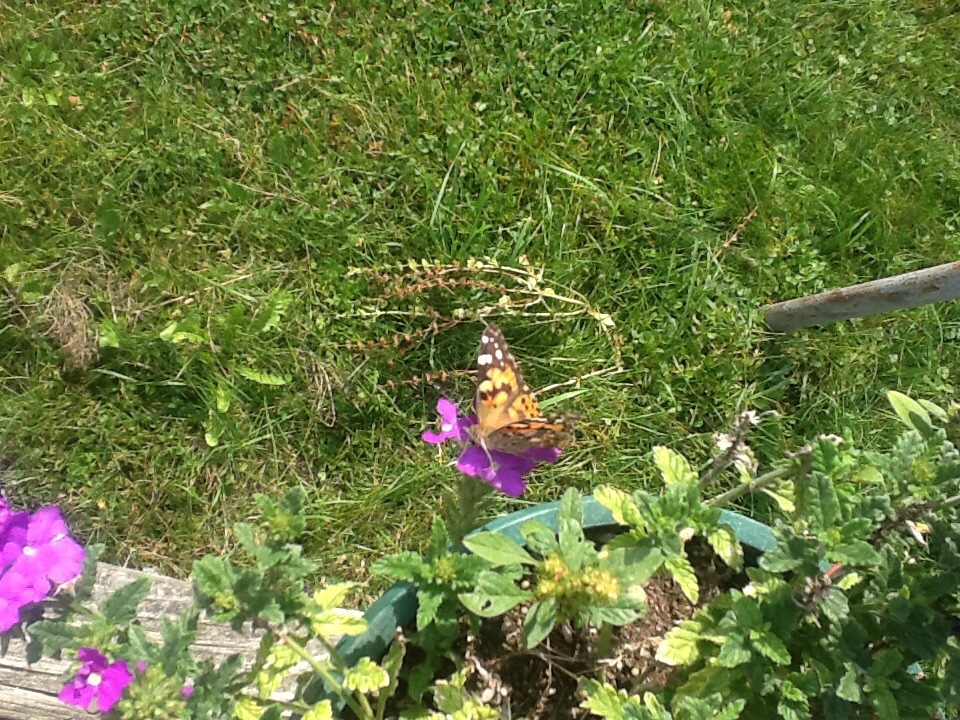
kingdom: Animalia
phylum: Arthropoda
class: Insecta
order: Lepidoptera
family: Nymphalidae
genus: Vanessa
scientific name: Vanessa cardui
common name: Painted lady
